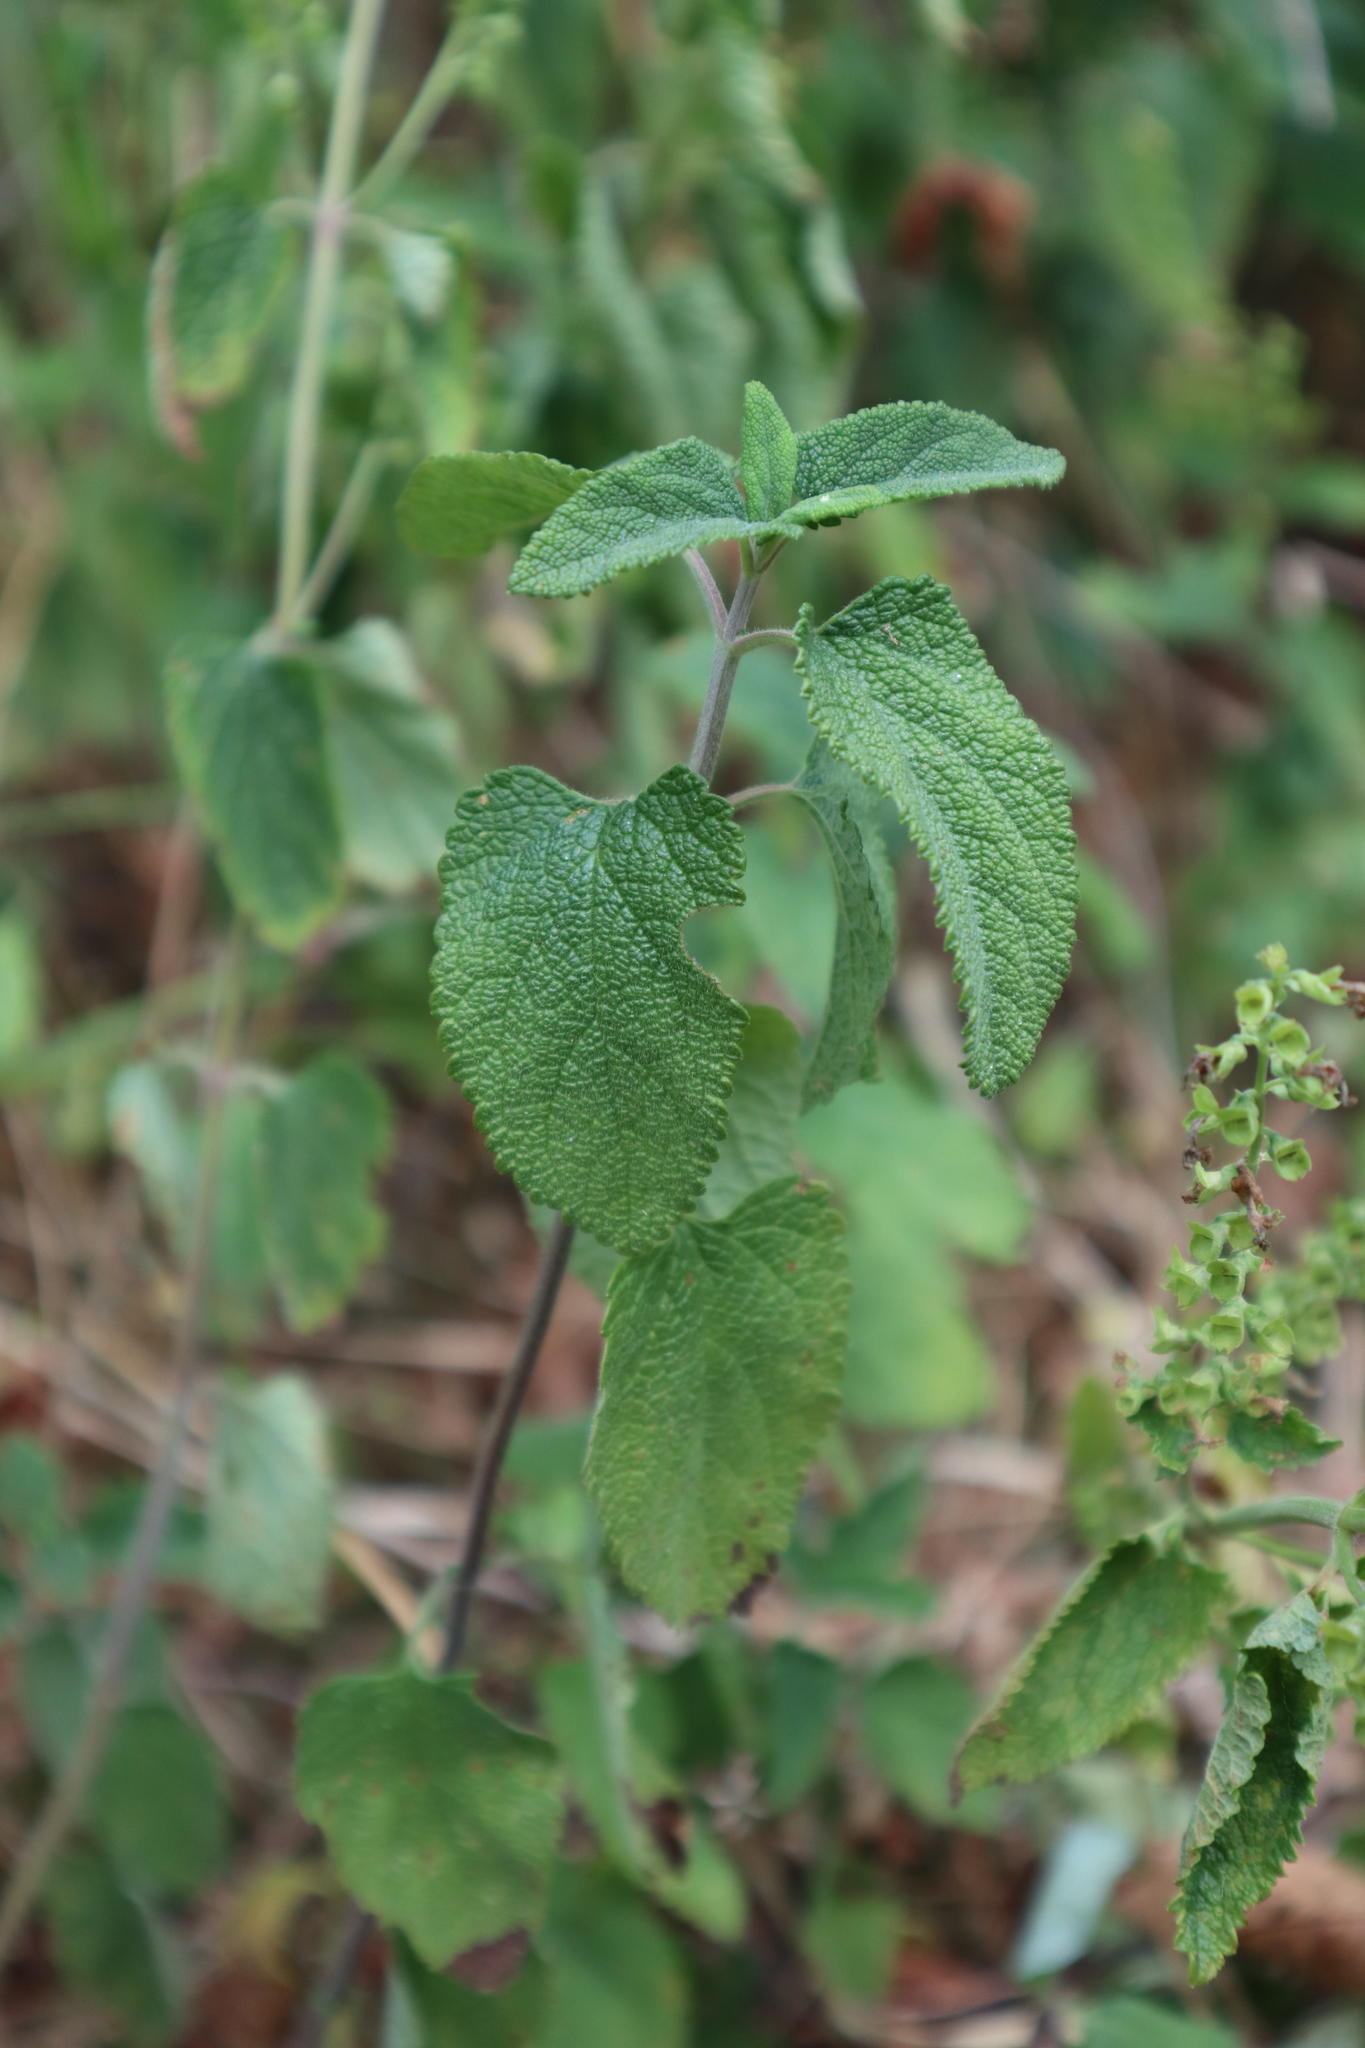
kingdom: Plantae
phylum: Tracheophyta
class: Magnoliopsida
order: Lamiales
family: Lamiaceae
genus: Teucrium
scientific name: Teucrium scorodonia
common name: Woodland germander
